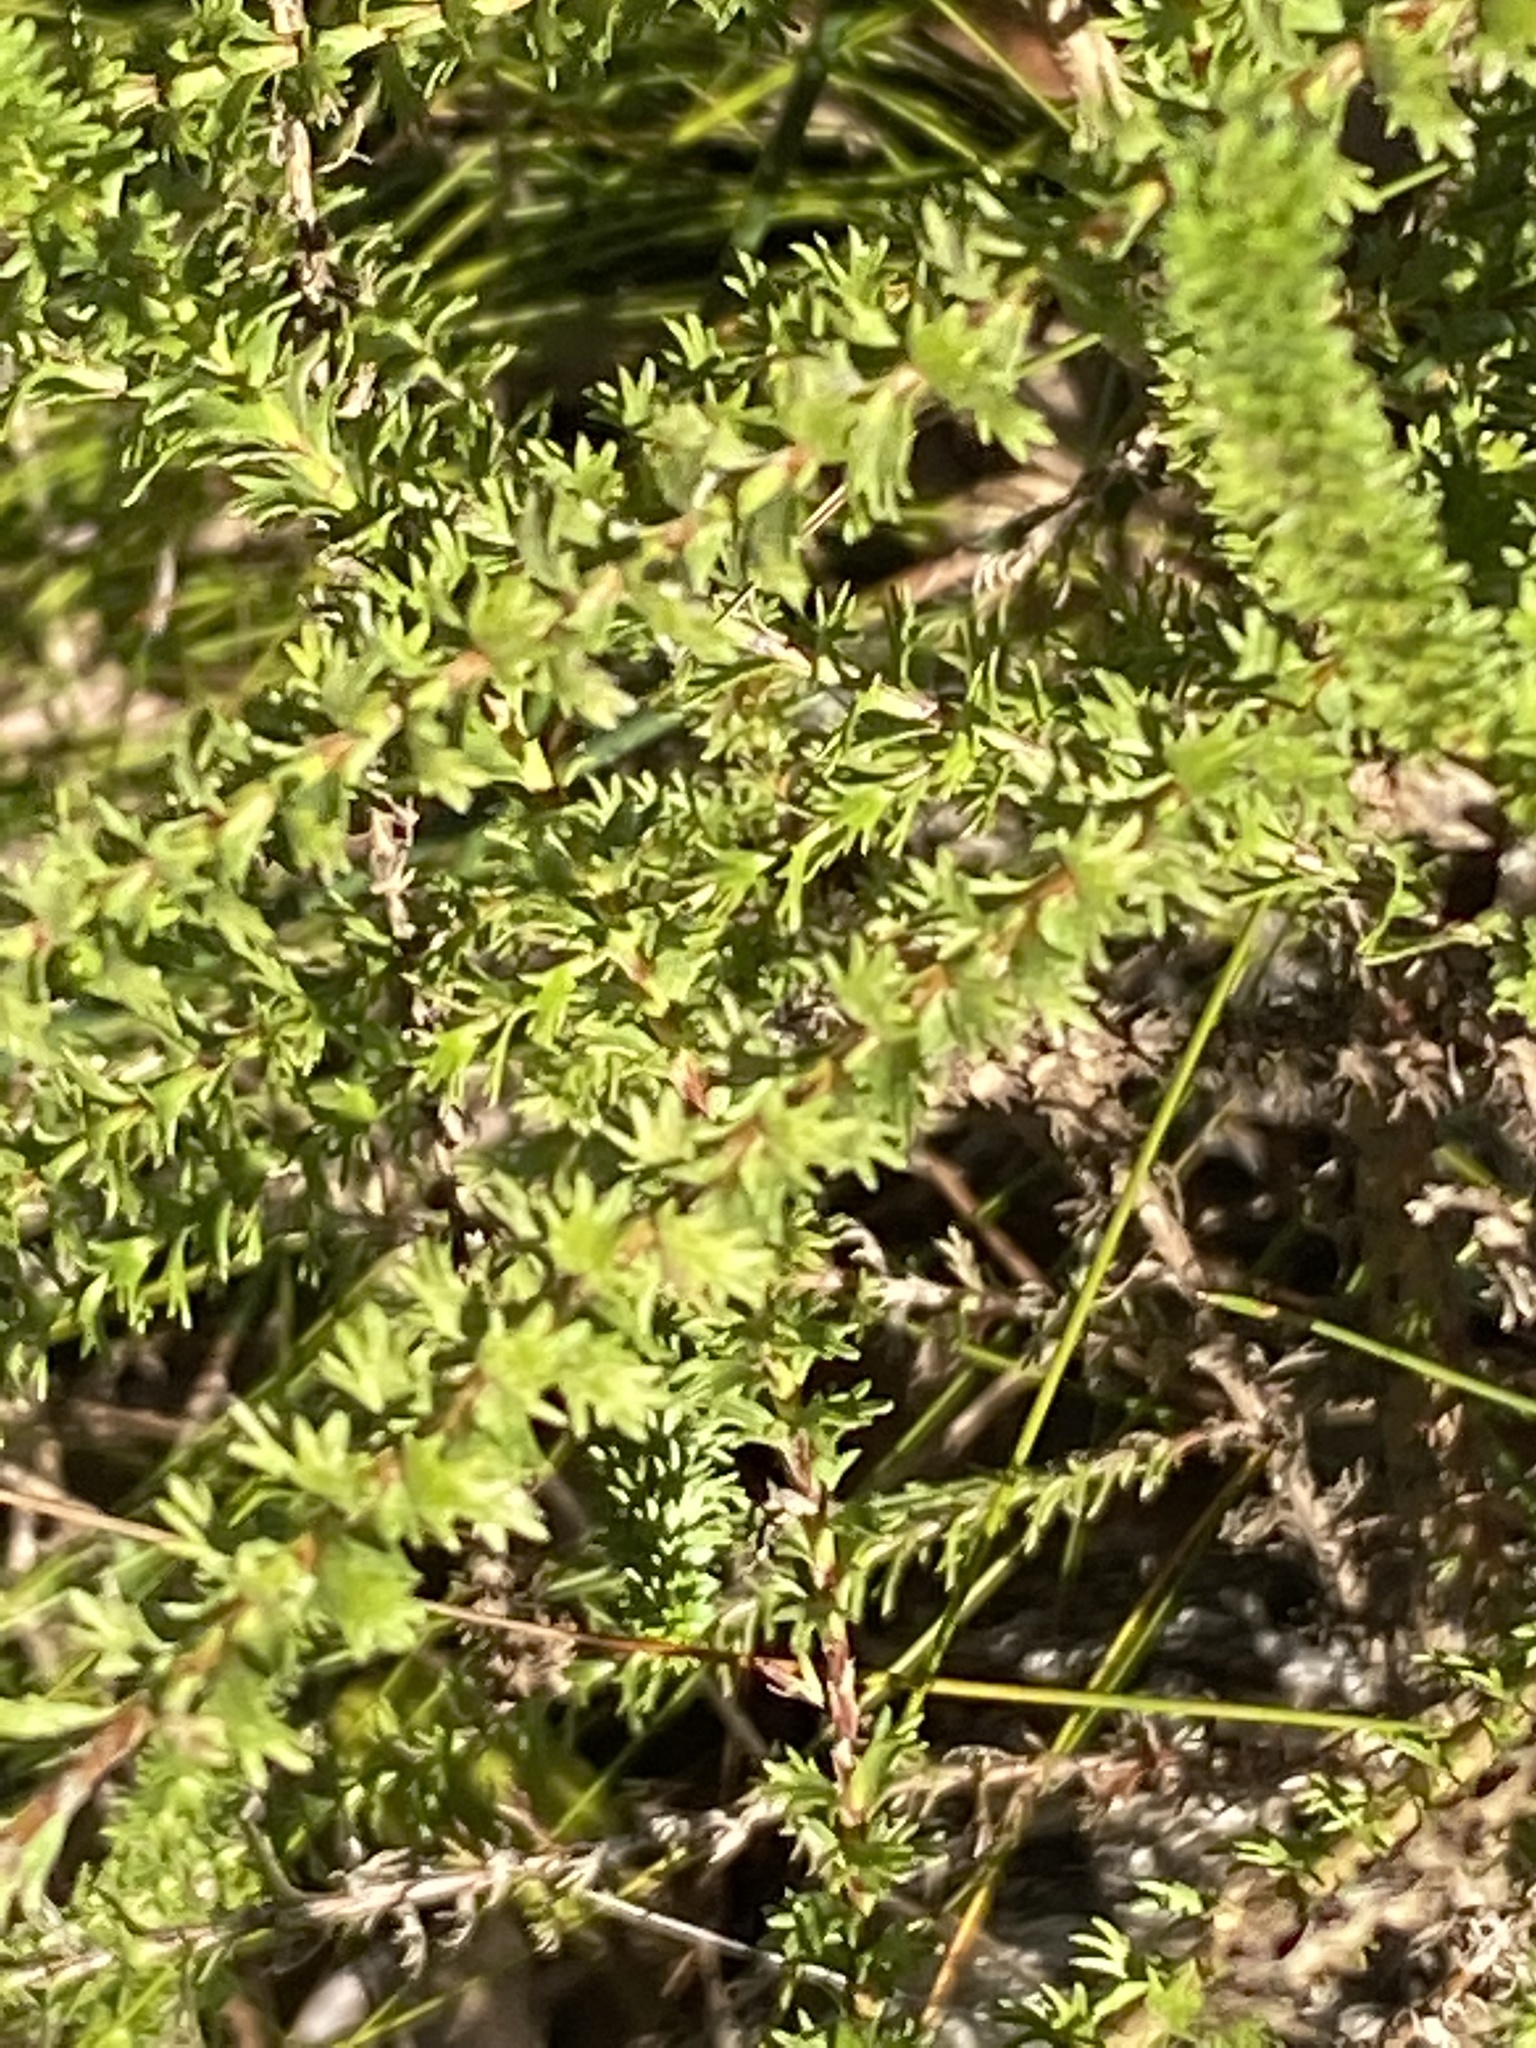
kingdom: Plantae
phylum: Tracheophyta
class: Magnoliopsida
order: Asterales
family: Asteraceae
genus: Euryops
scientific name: Euryops virgineus
